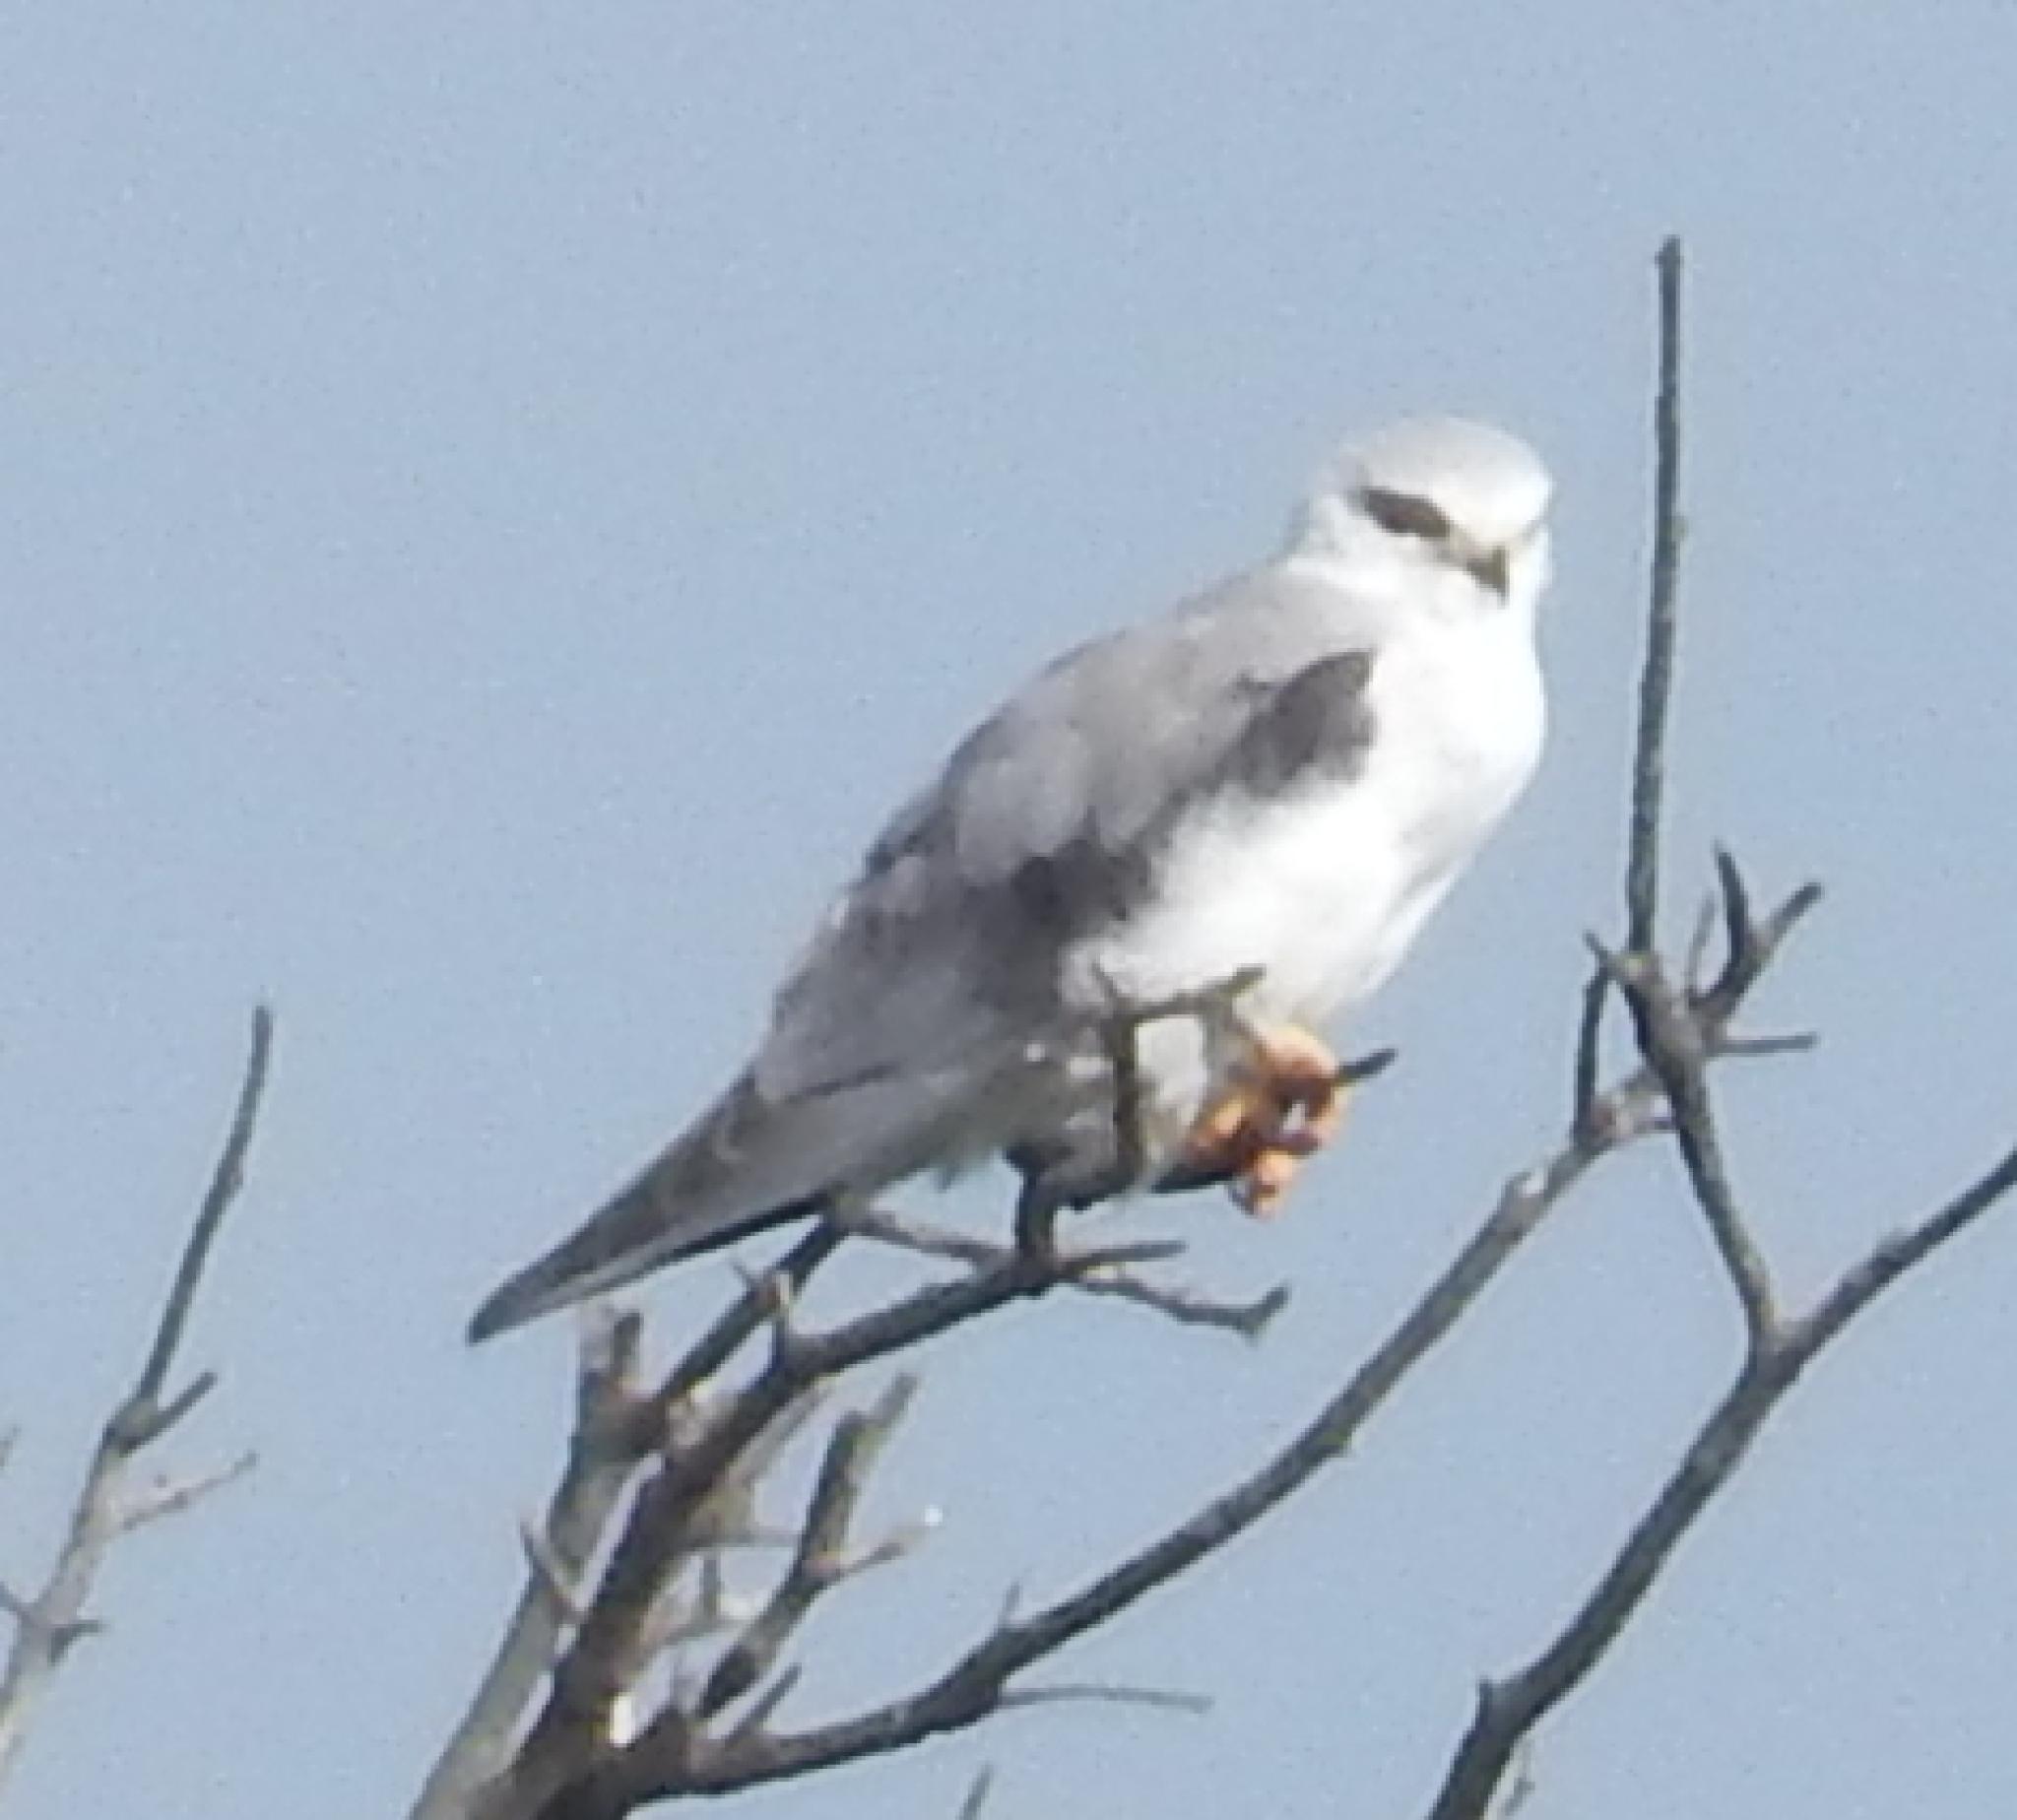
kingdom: Animalia
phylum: Chordata
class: Aves
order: Accipitriformes
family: Accipitridae
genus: Elanus
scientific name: Elanus caeruleus
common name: Black-winged kite
